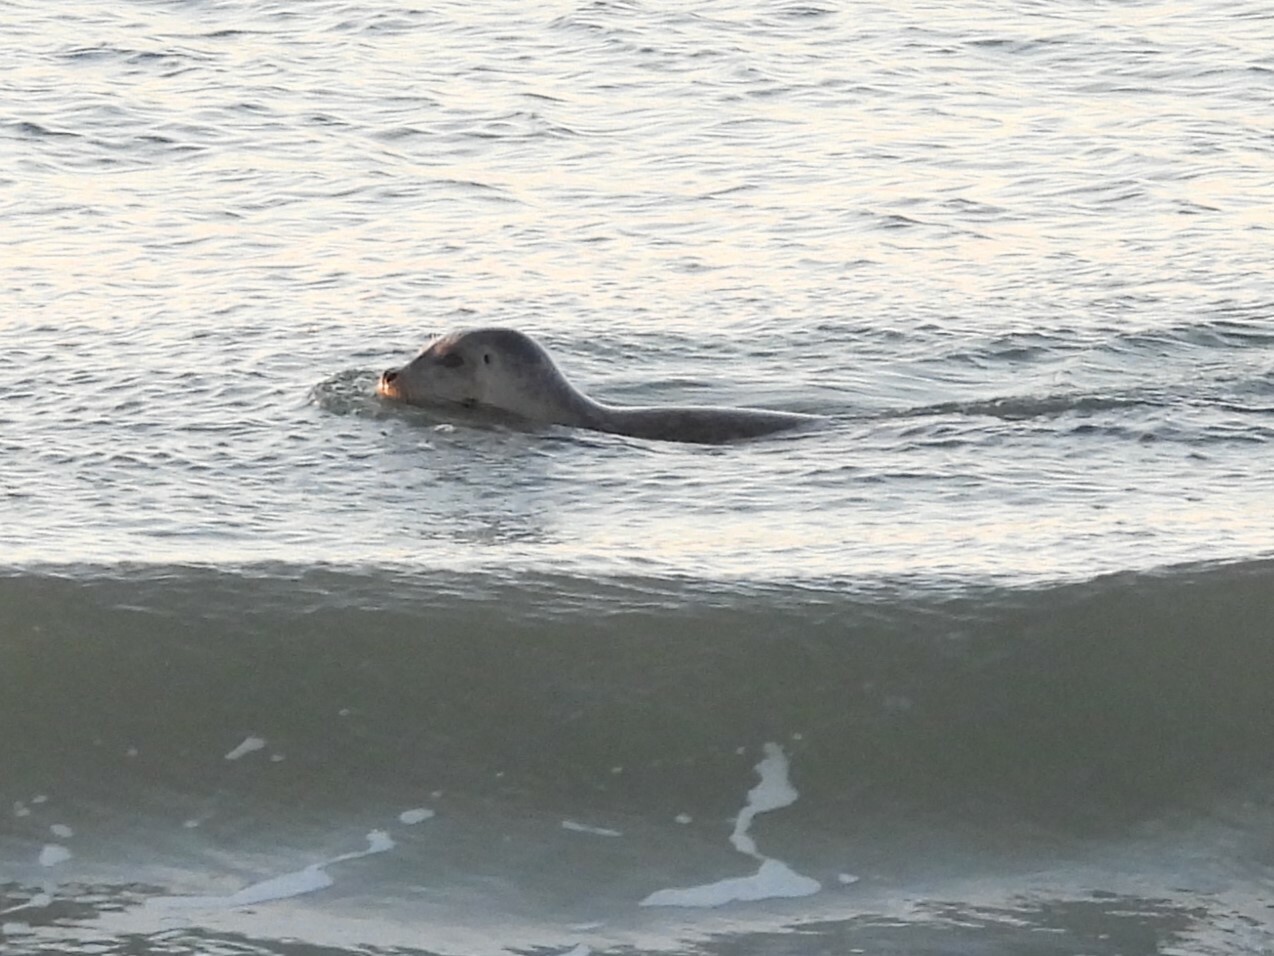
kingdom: Animalia
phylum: Chordata
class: Mammalia
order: Carnivora
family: Phocidae
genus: Phoca
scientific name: Phoca vitulina
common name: Harbor seal
